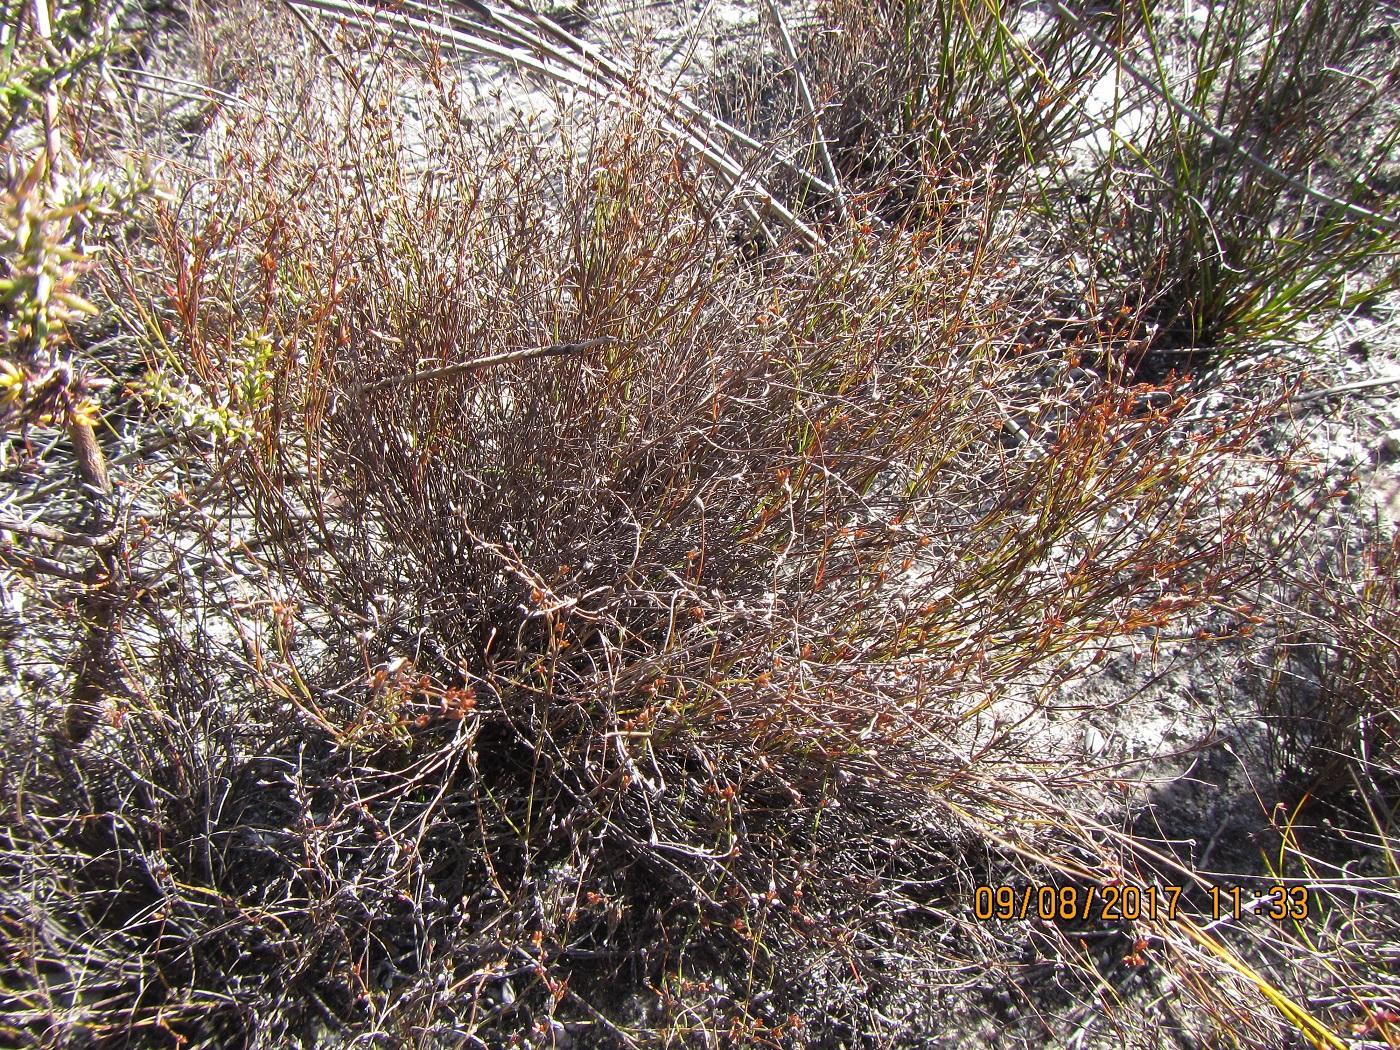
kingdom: Plantae
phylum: Tracheophyta
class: Liliopsida
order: Poales
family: Restionaceae
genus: Restio
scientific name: Restio pumilus
